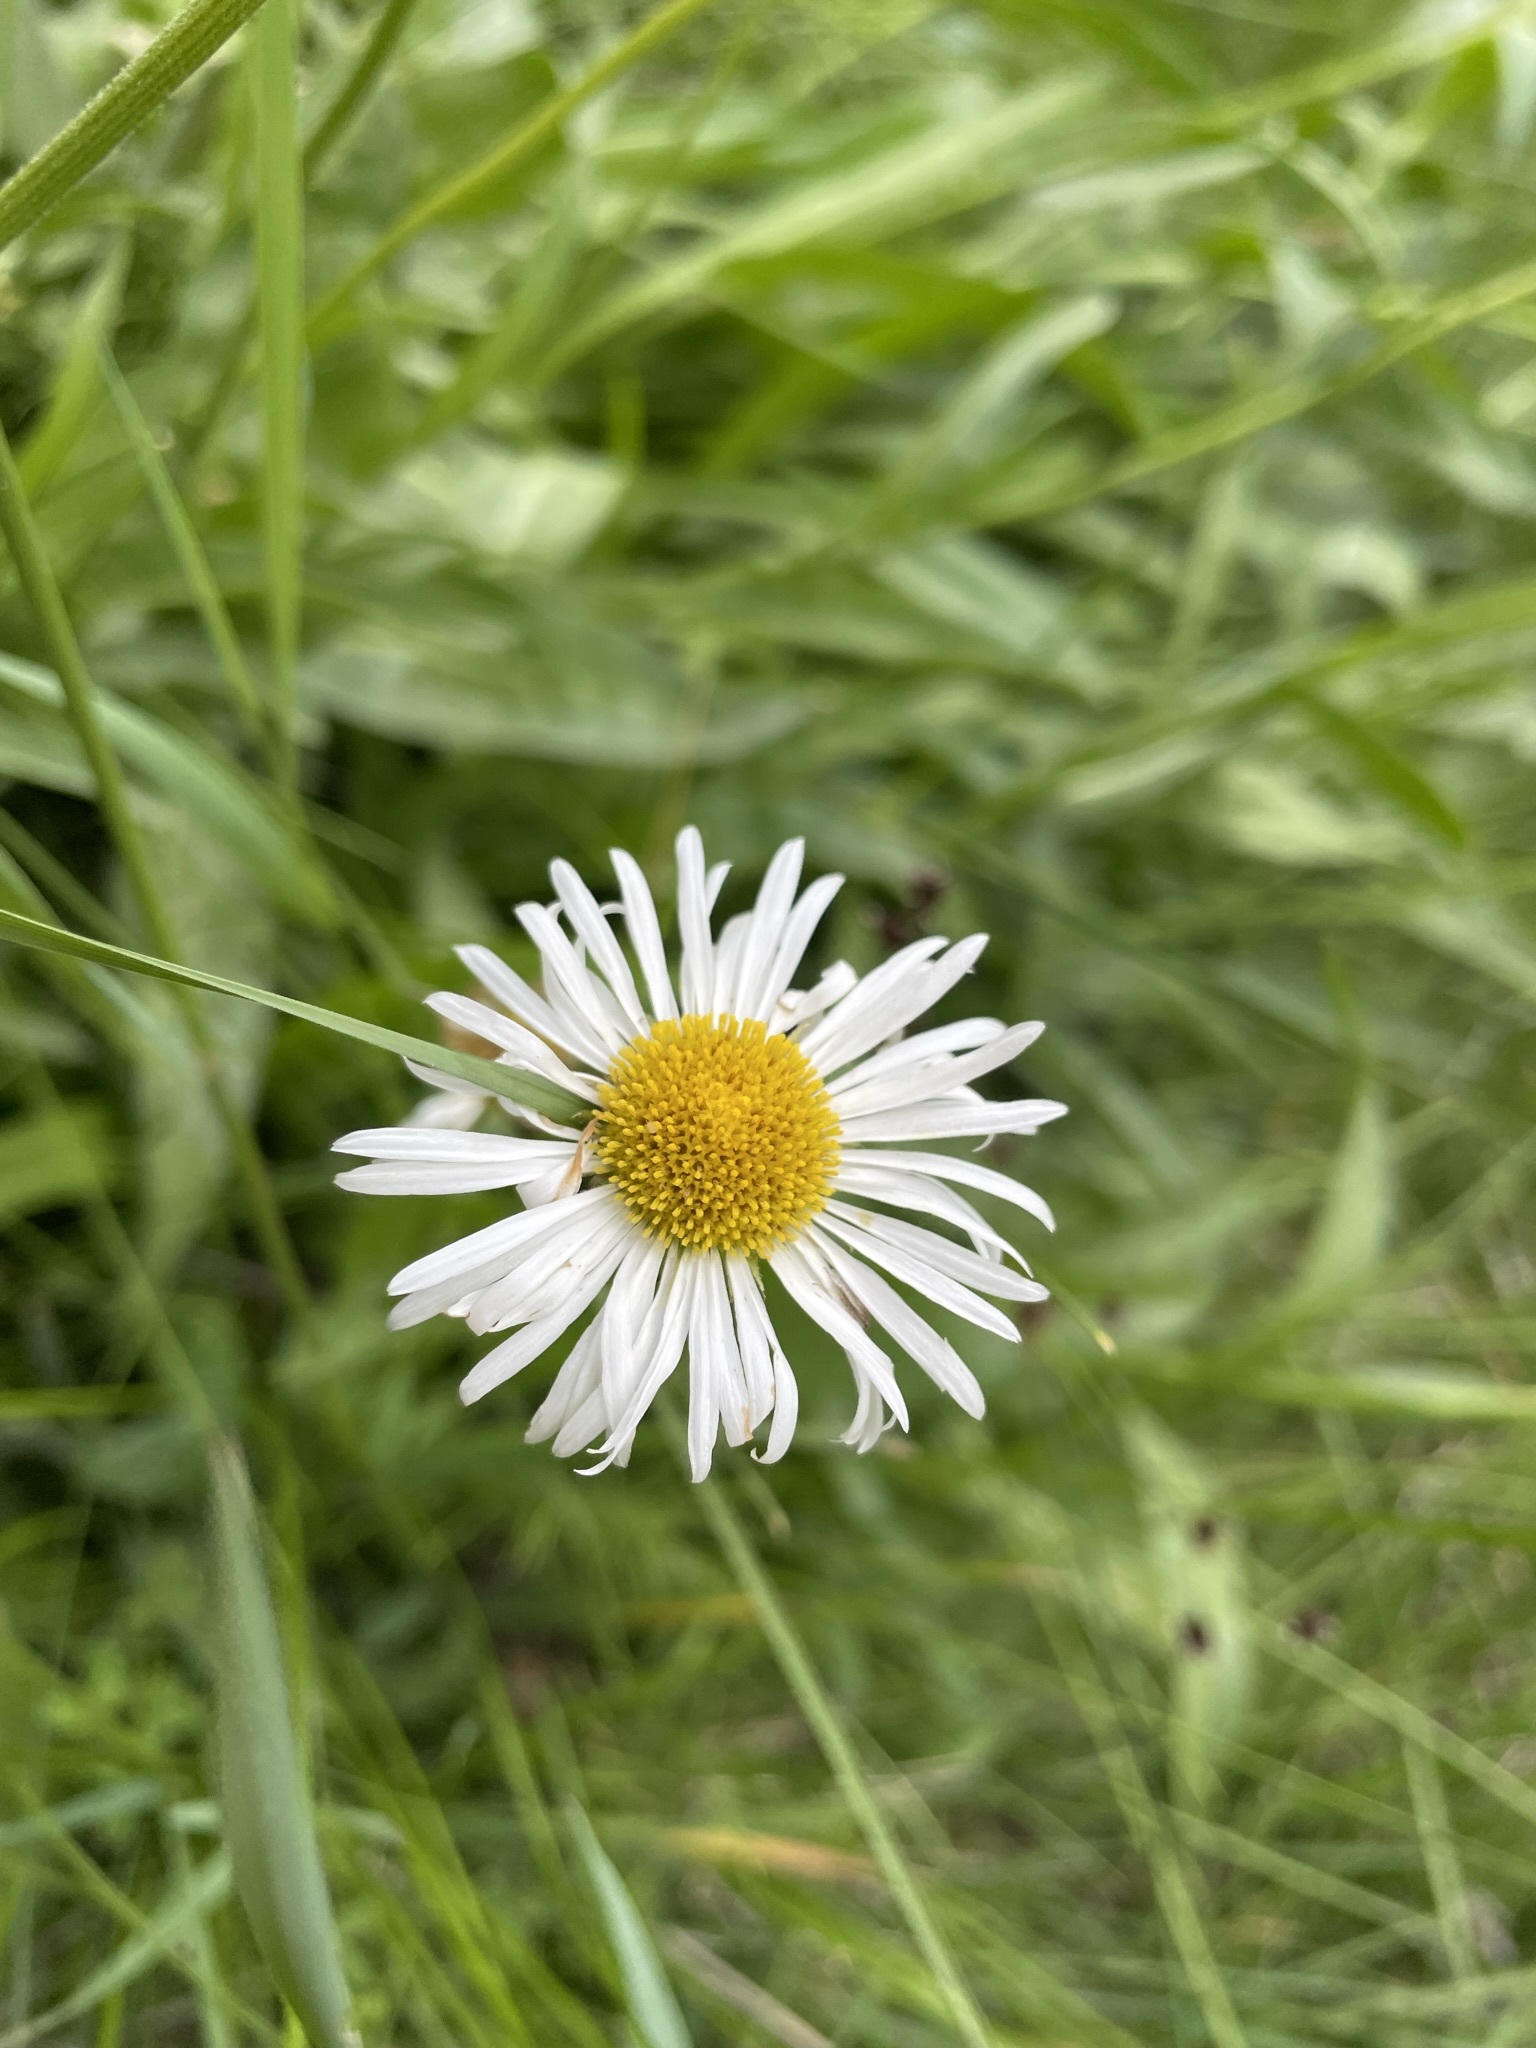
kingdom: Plantae
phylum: Tracheophyta
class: Magnoliopsida
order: Asterales
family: Asteraceae
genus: Erigeron
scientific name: Erigeron coulteri
